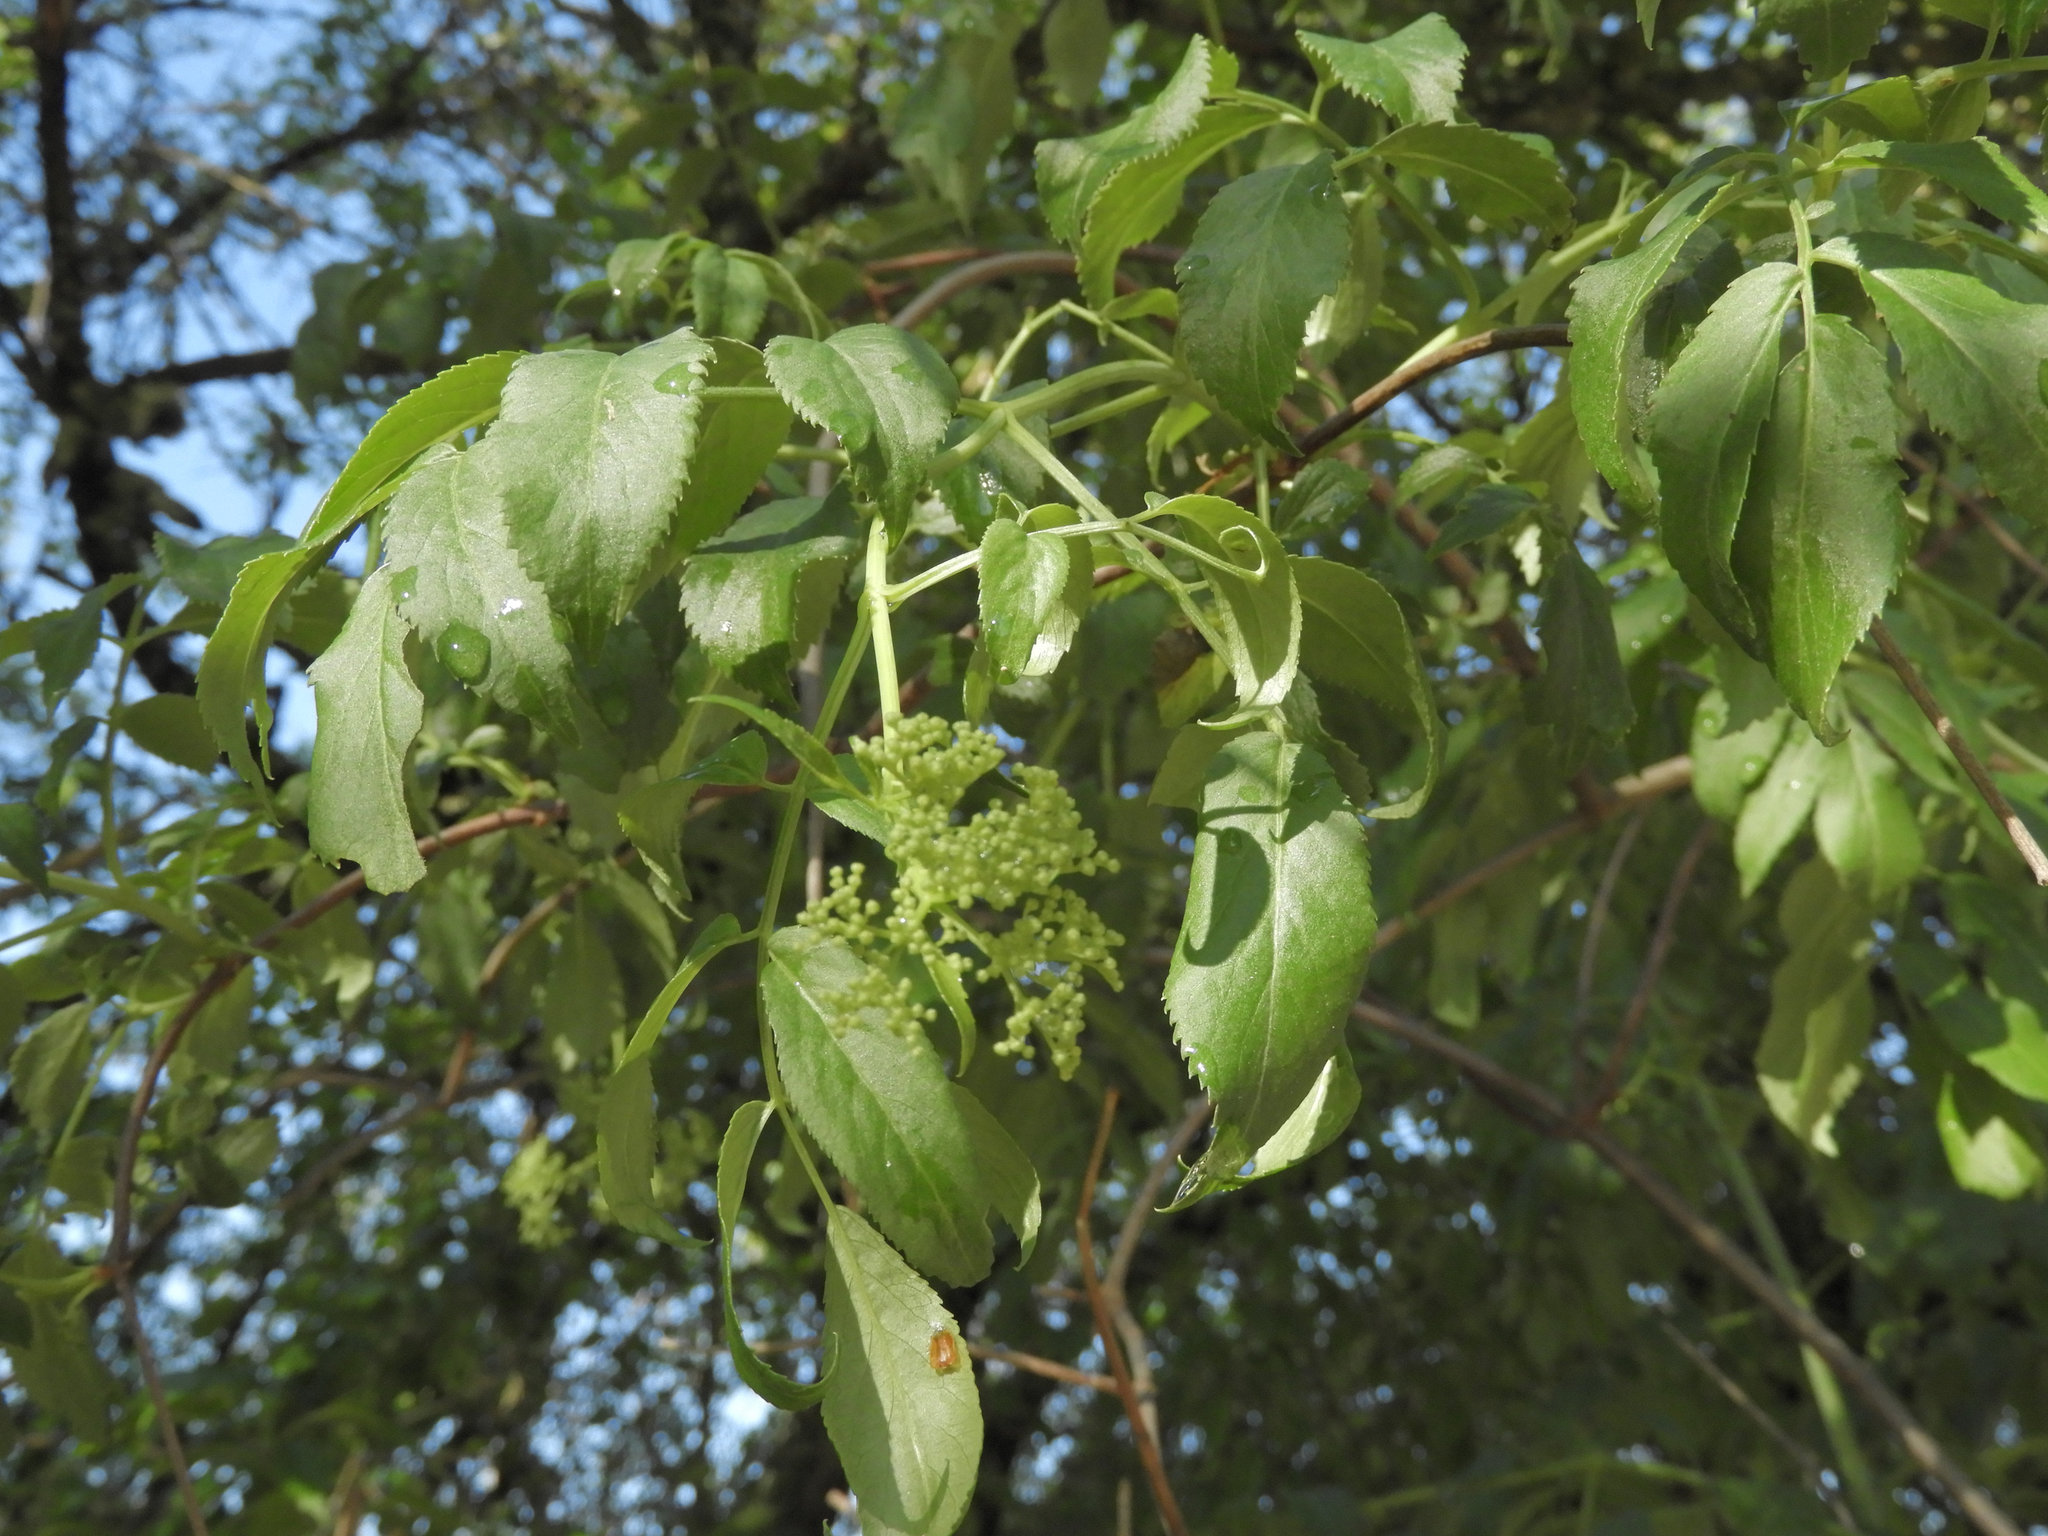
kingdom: Plantae
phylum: Tracheophyta
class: Magnoliopsida
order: Dipsacales
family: Viburnaceae
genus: Sambucus
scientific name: Sambucus cerulea
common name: Blue elder
